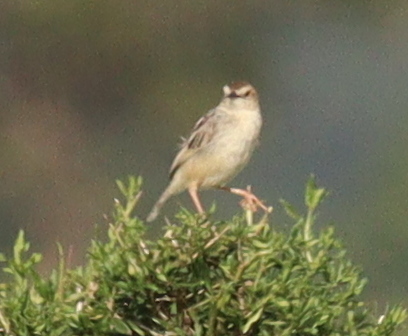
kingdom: Animalia
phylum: Chordata
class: Aves
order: Passeriformes
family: Cisticolidae
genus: Cisticola
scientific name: Cisticola juncidis
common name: Zitting cisticola
